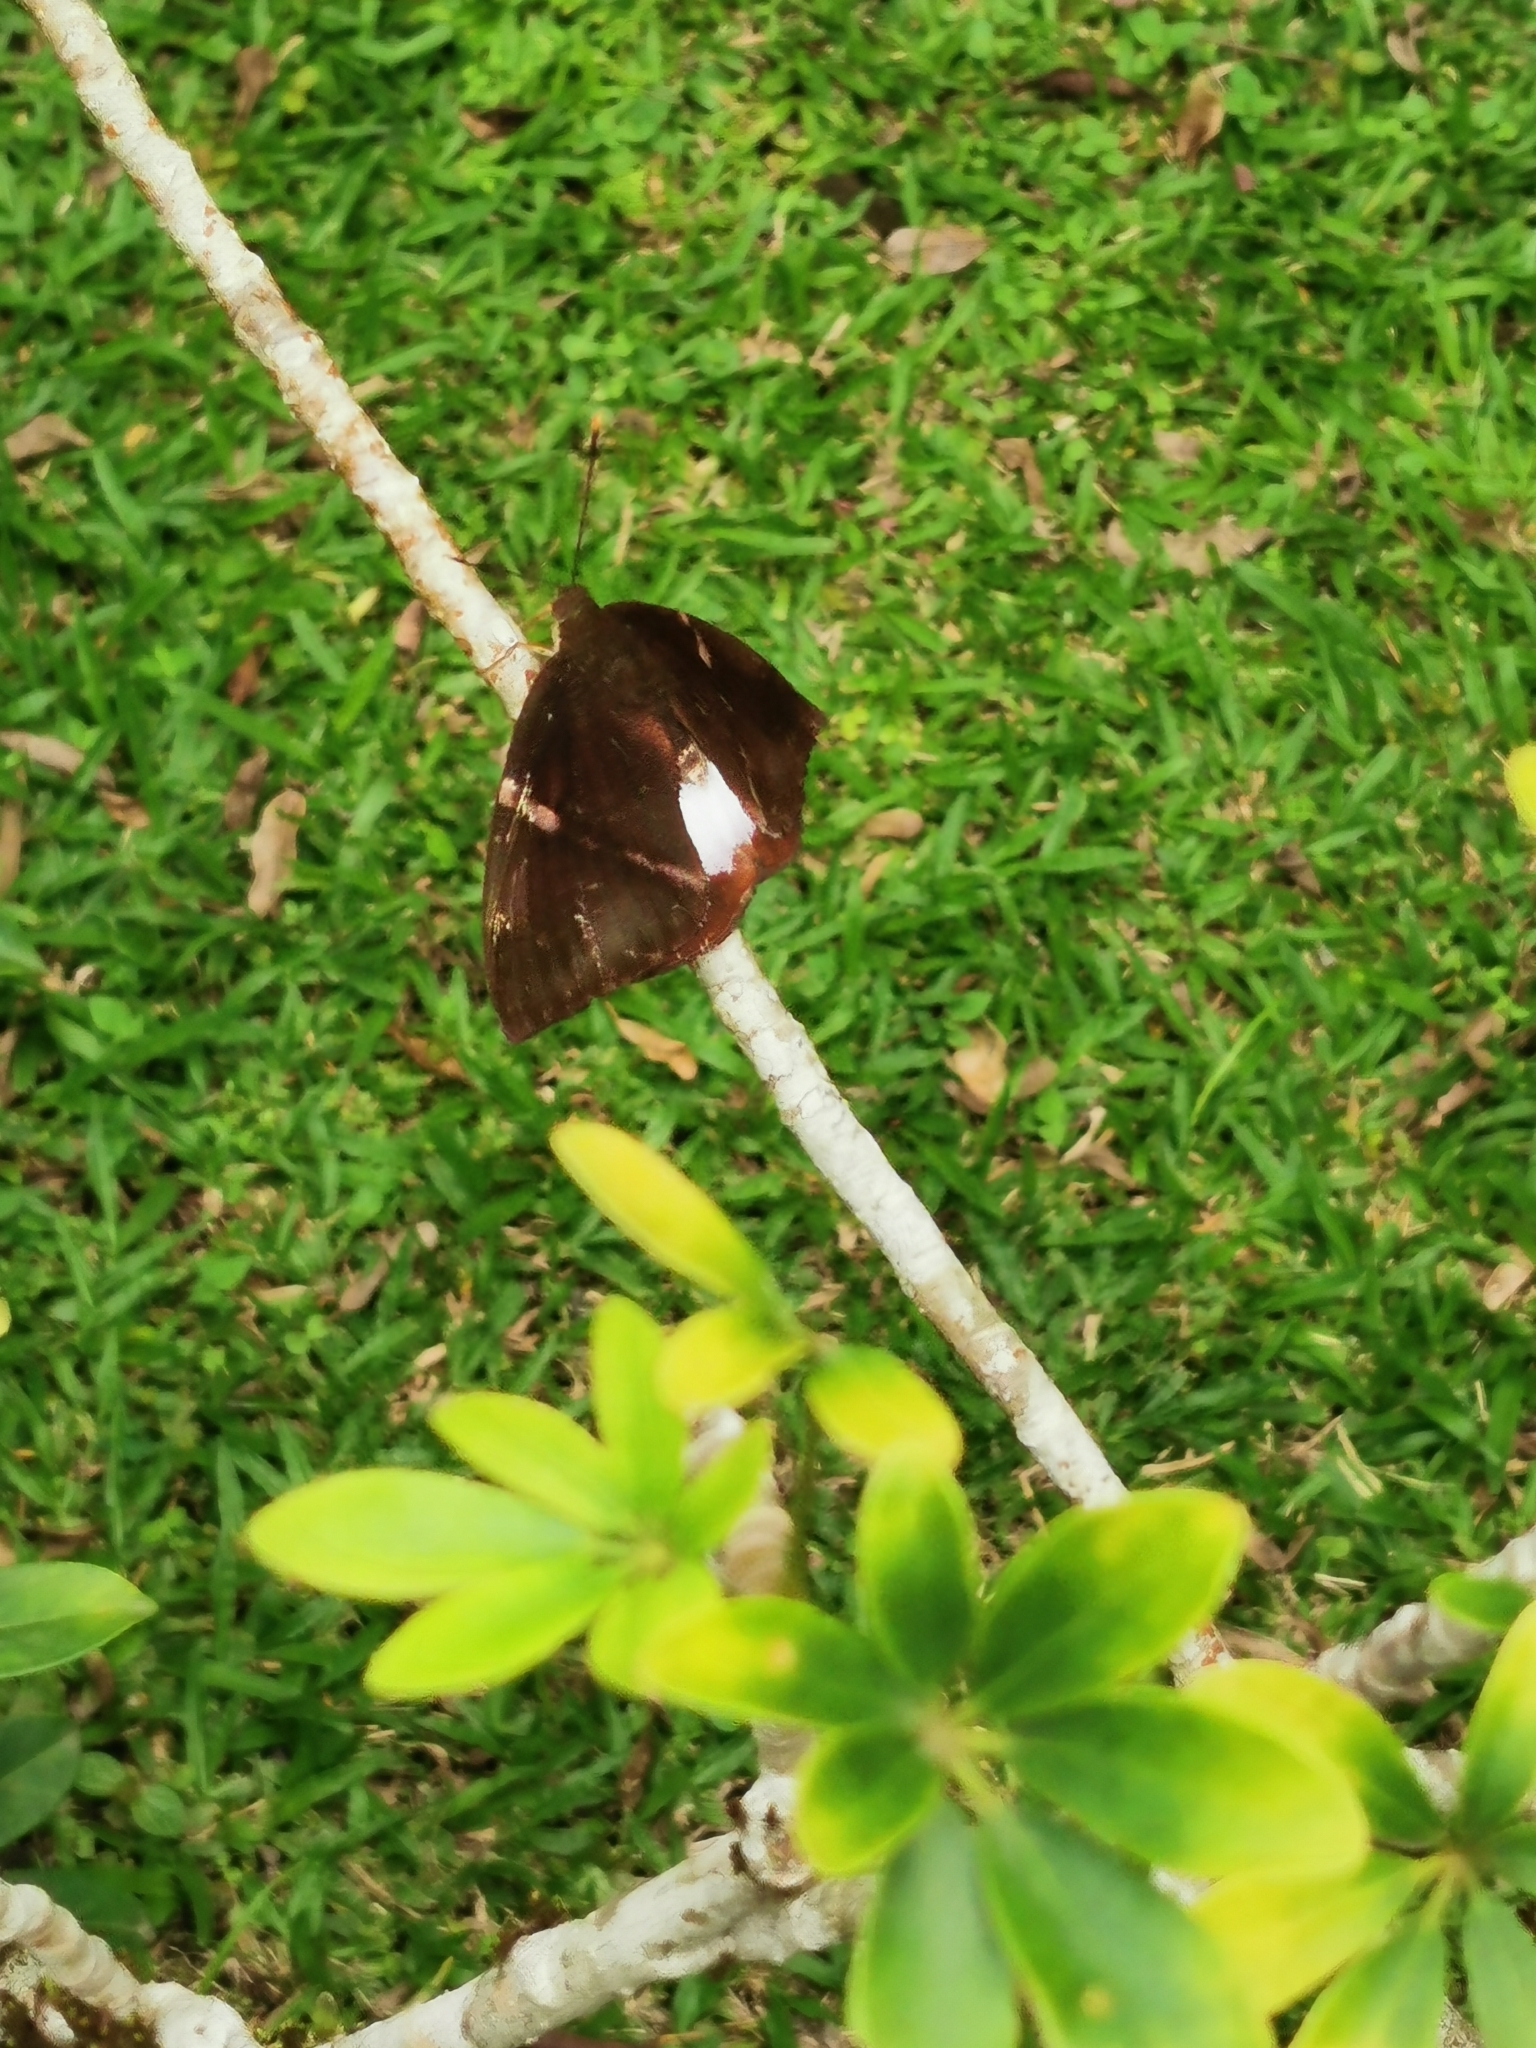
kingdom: Animalia
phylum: Arthropoda
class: Insecta
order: Lepidoptera
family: Castniidae
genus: Castniomera
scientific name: Castniomera atymnius
